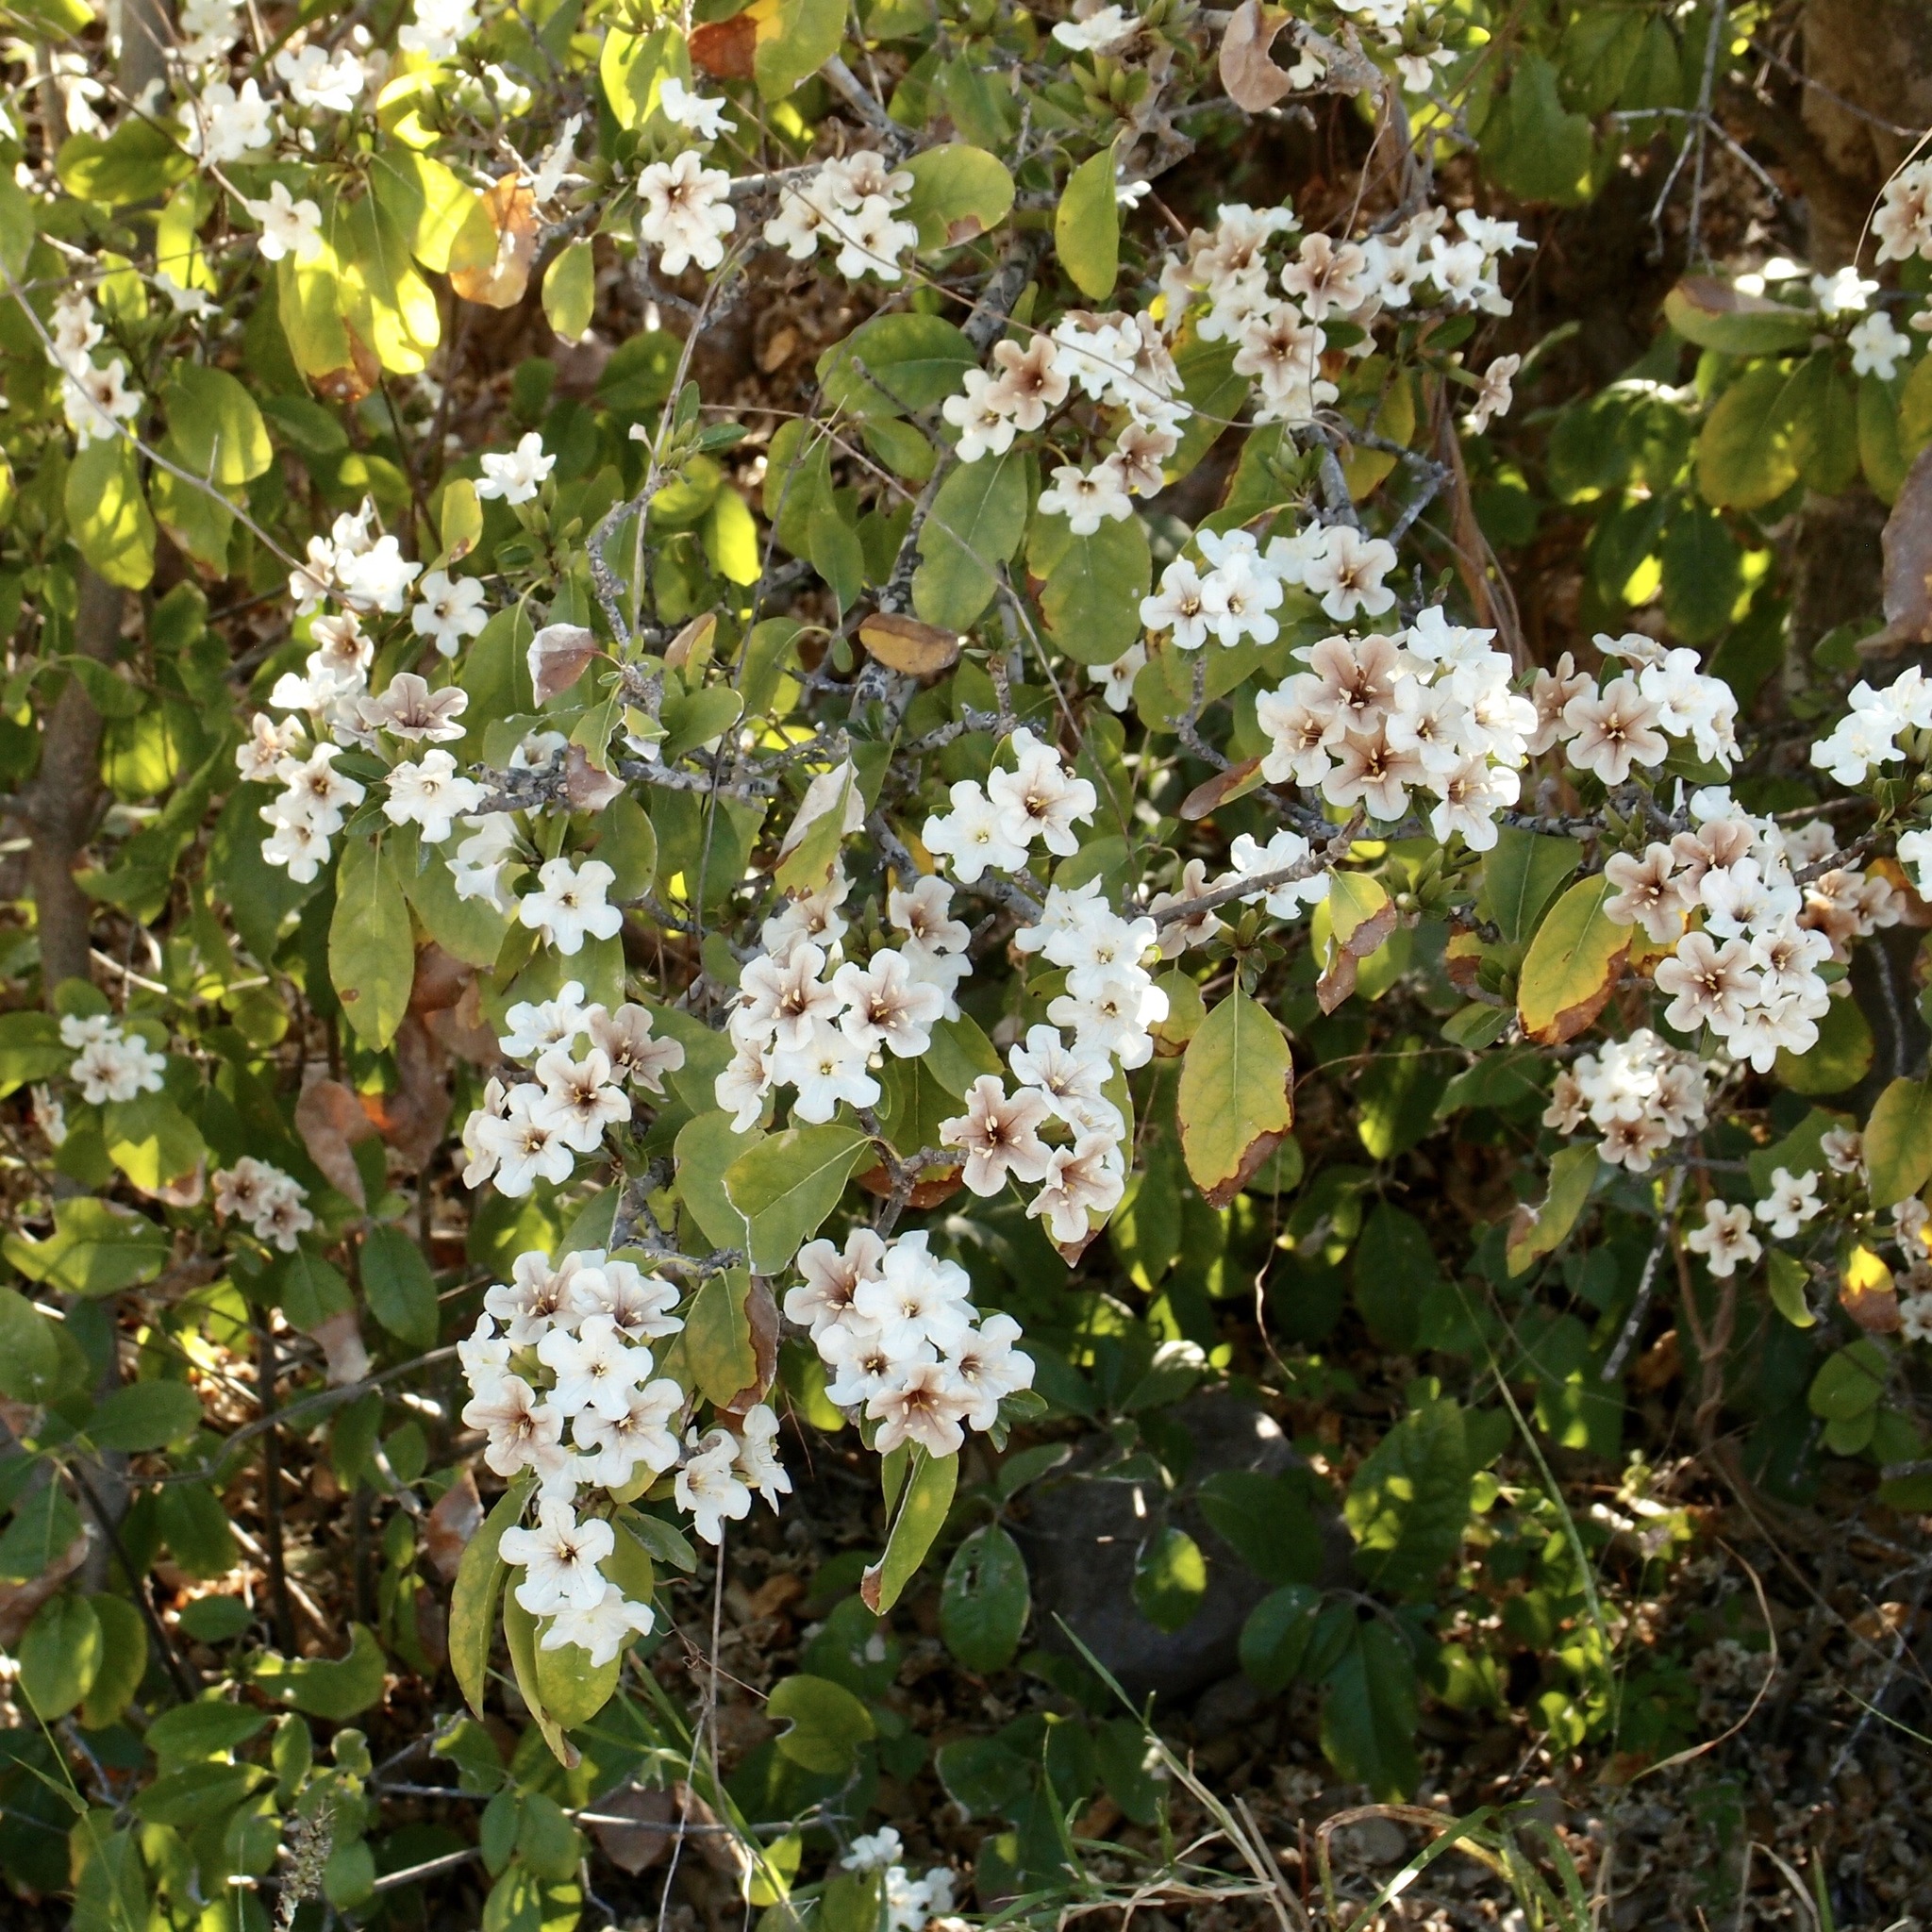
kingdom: Plantae
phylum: Tracheophyta
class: Magnoliopsida
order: Boraginales
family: Cordiaceae
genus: Cordia
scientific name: Cordia sonorae
